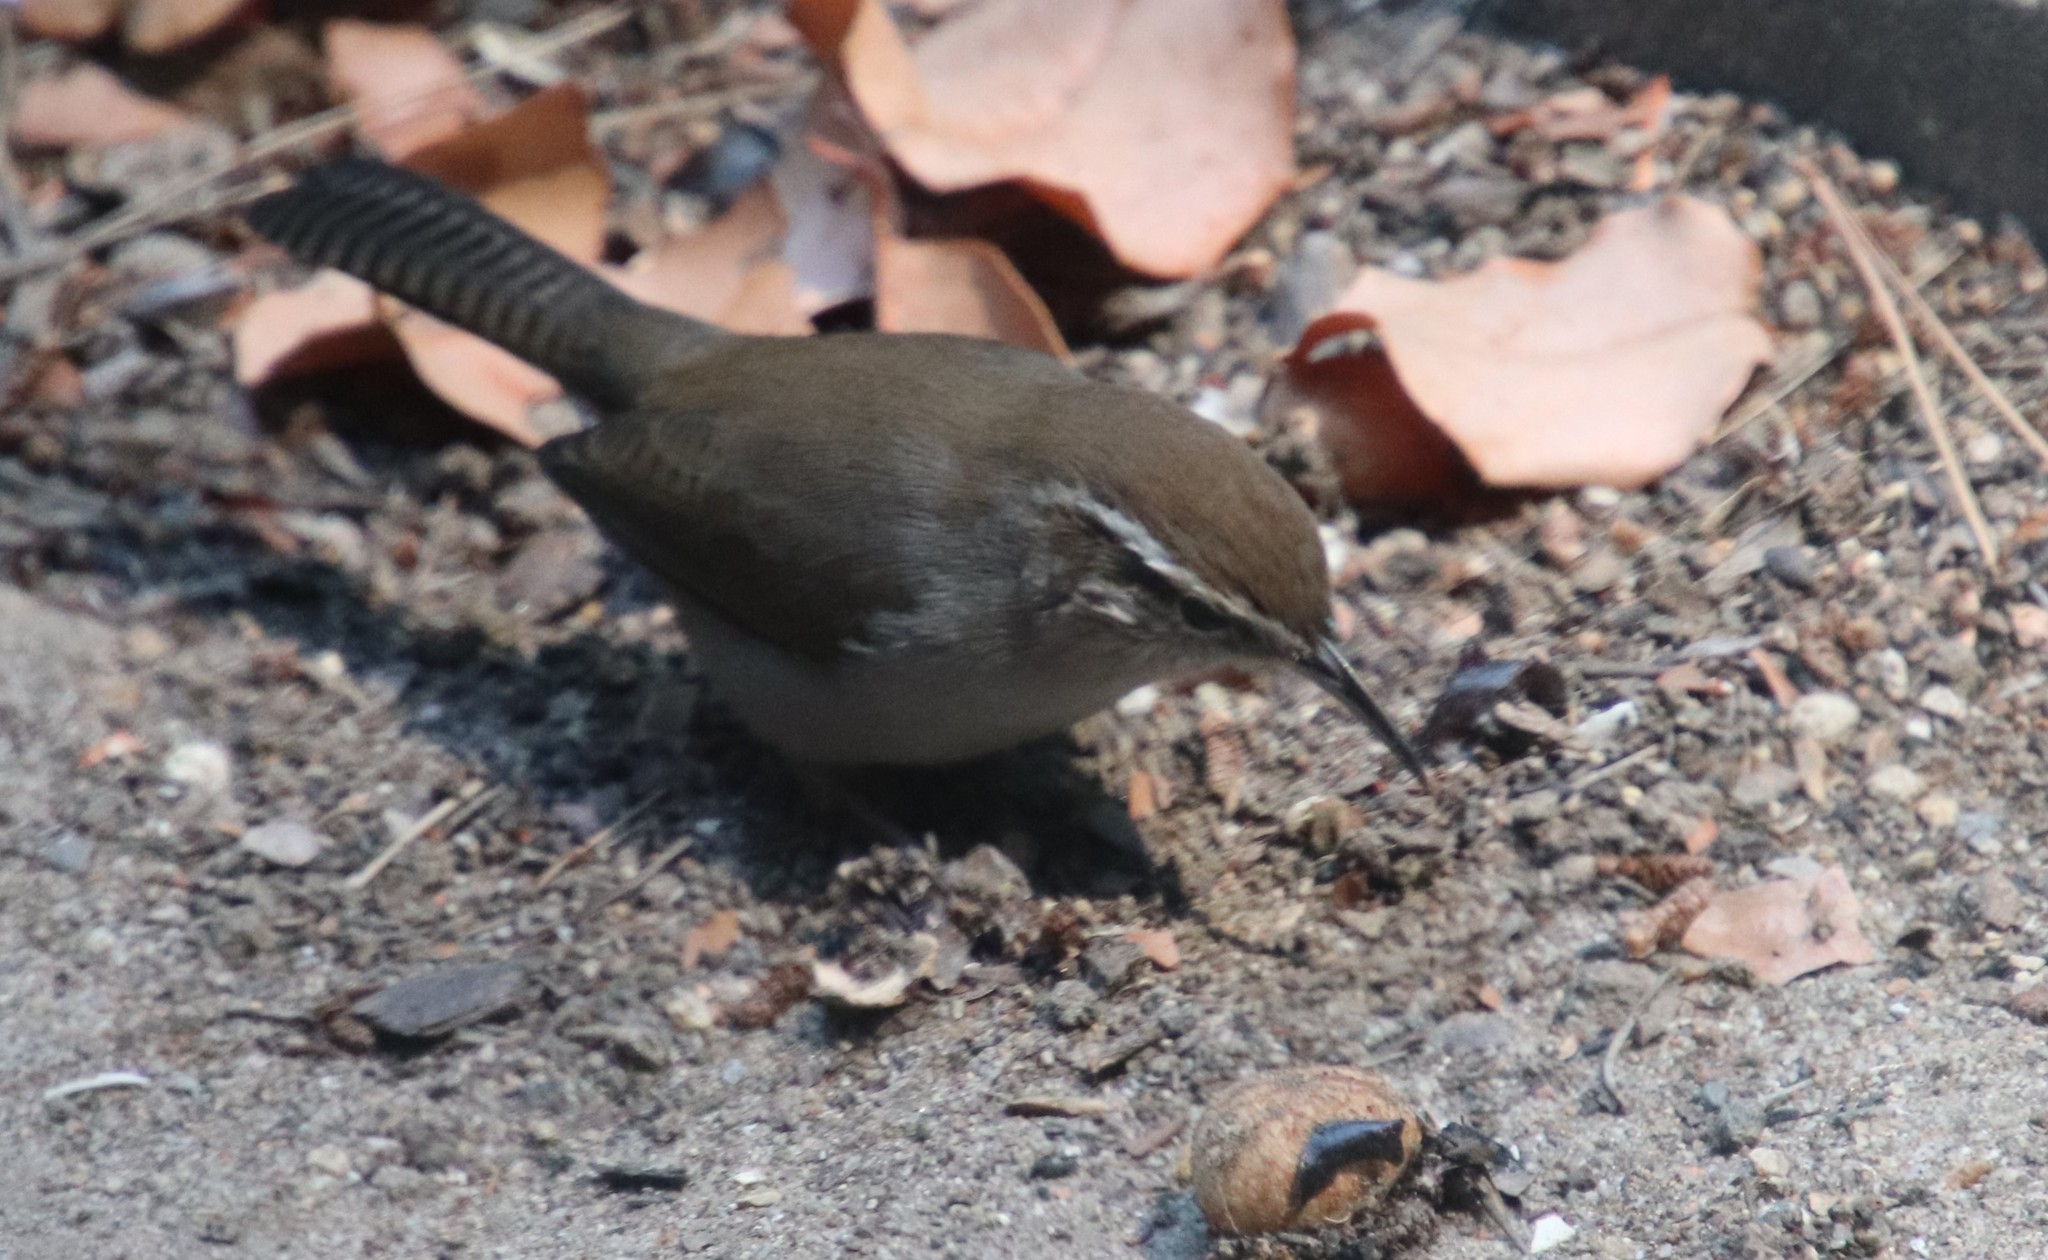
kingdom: Animalia
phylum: Chordata
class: Aves
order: Passeriformes
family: Troglodytidae
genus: Thryomanes
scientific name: Thryomanes bewickii
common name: Bewick's wren
